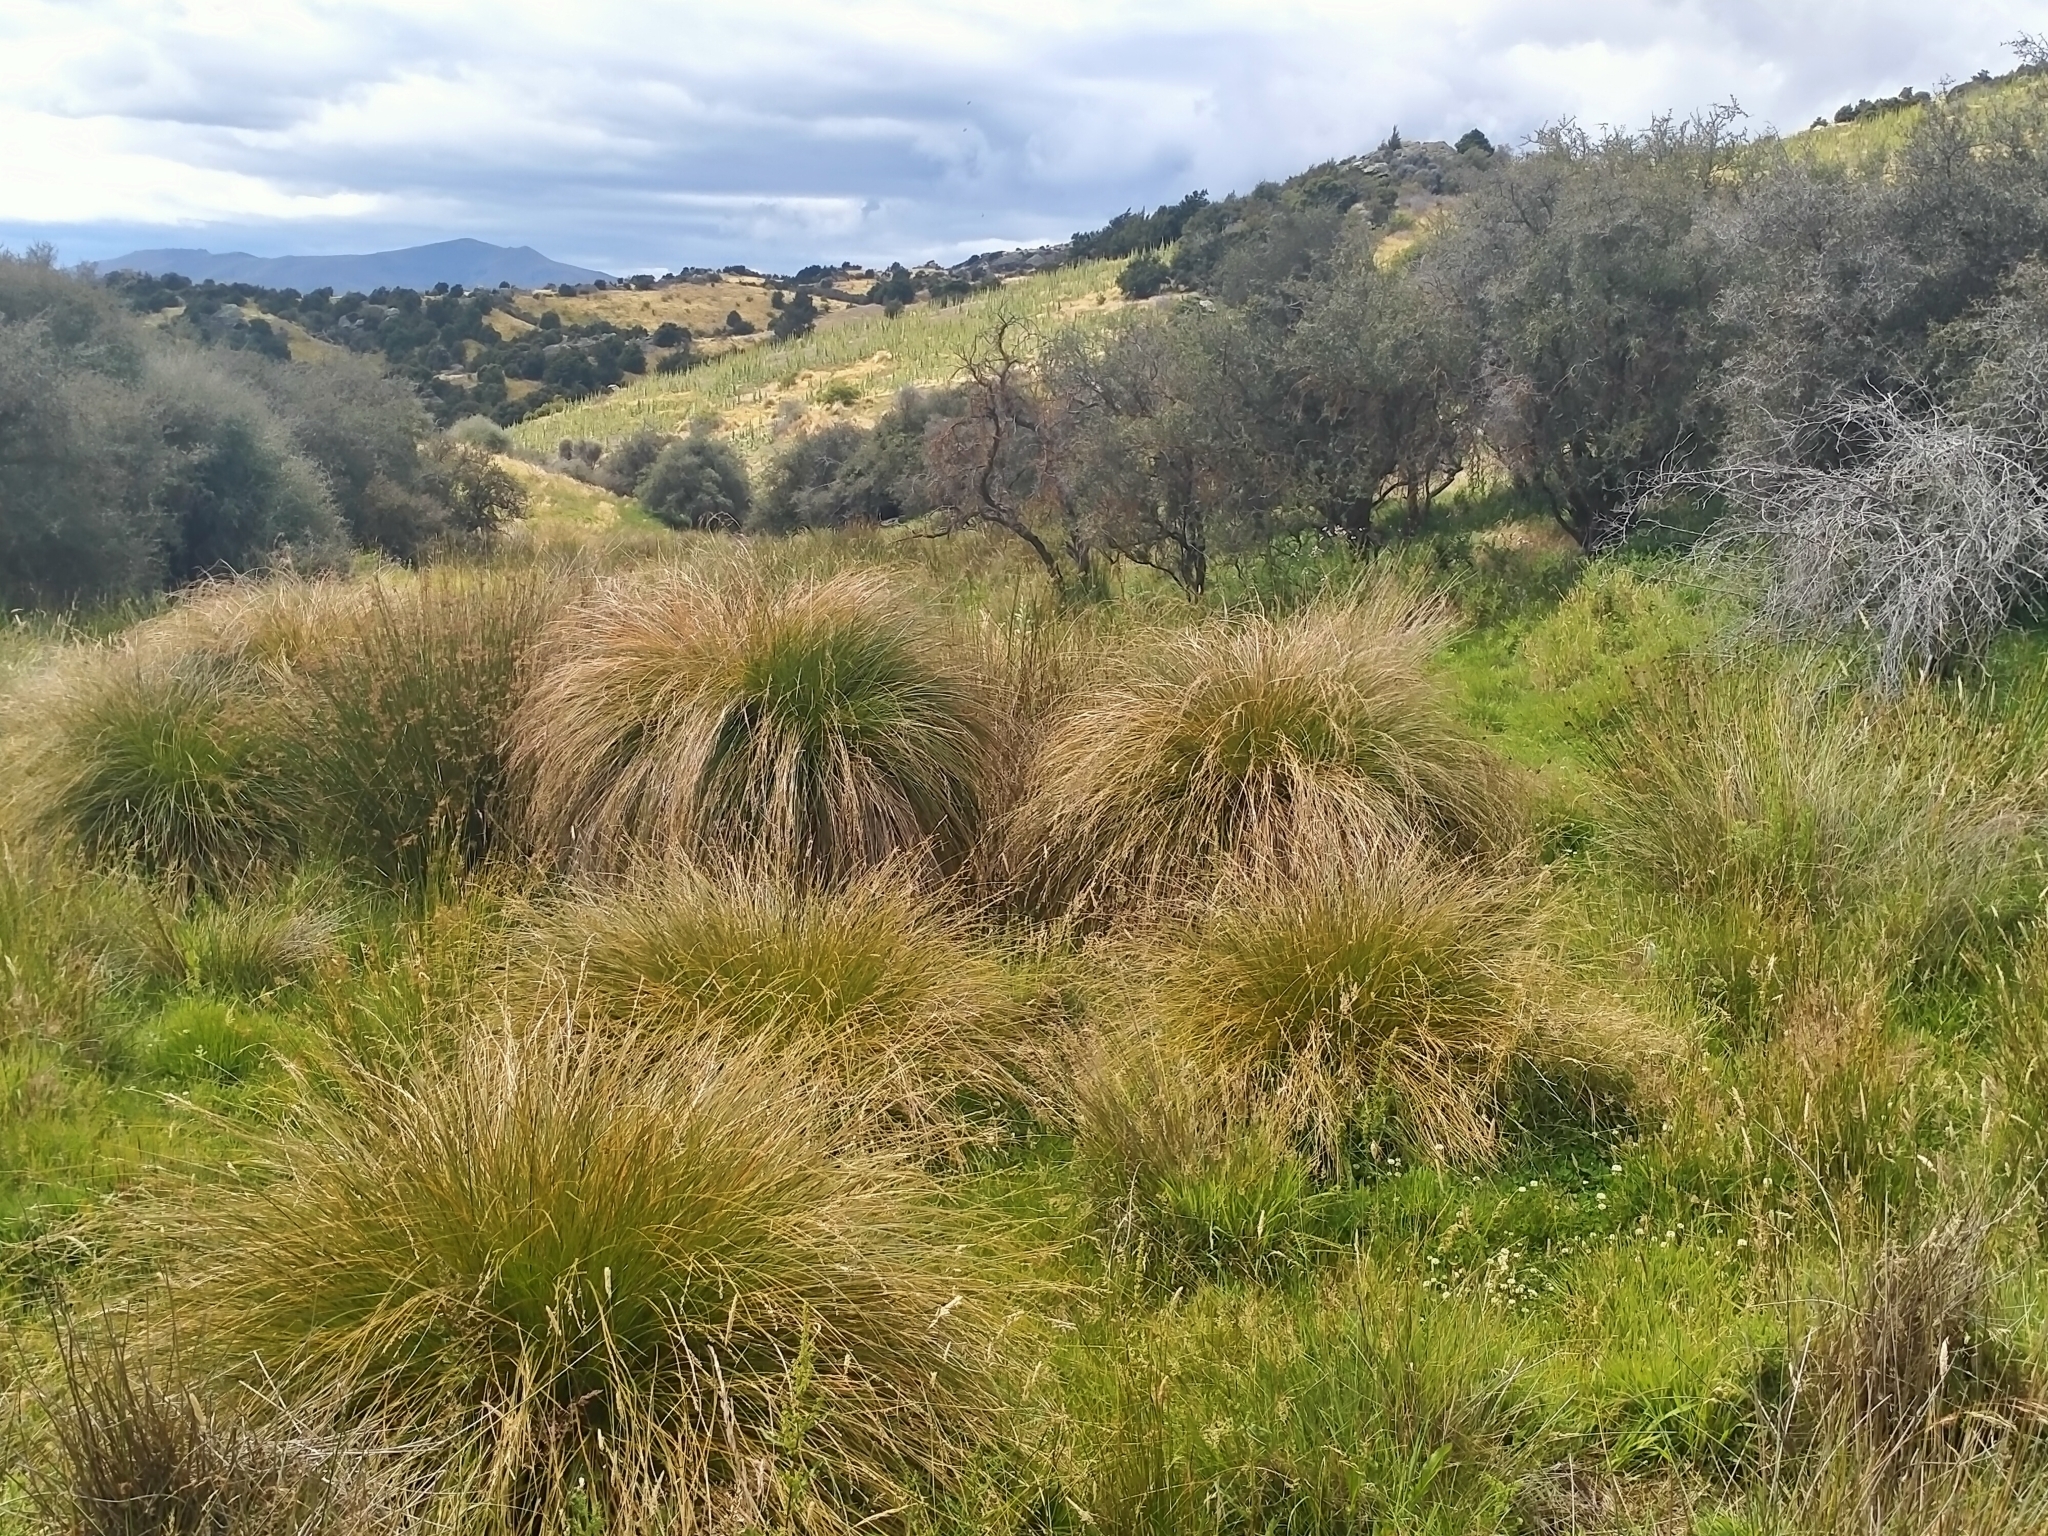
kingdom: Plantae
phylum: Tracheophyta
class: Liliopsida
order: Poales
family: Cyperaceae
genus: Carex
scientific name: Carex secta
